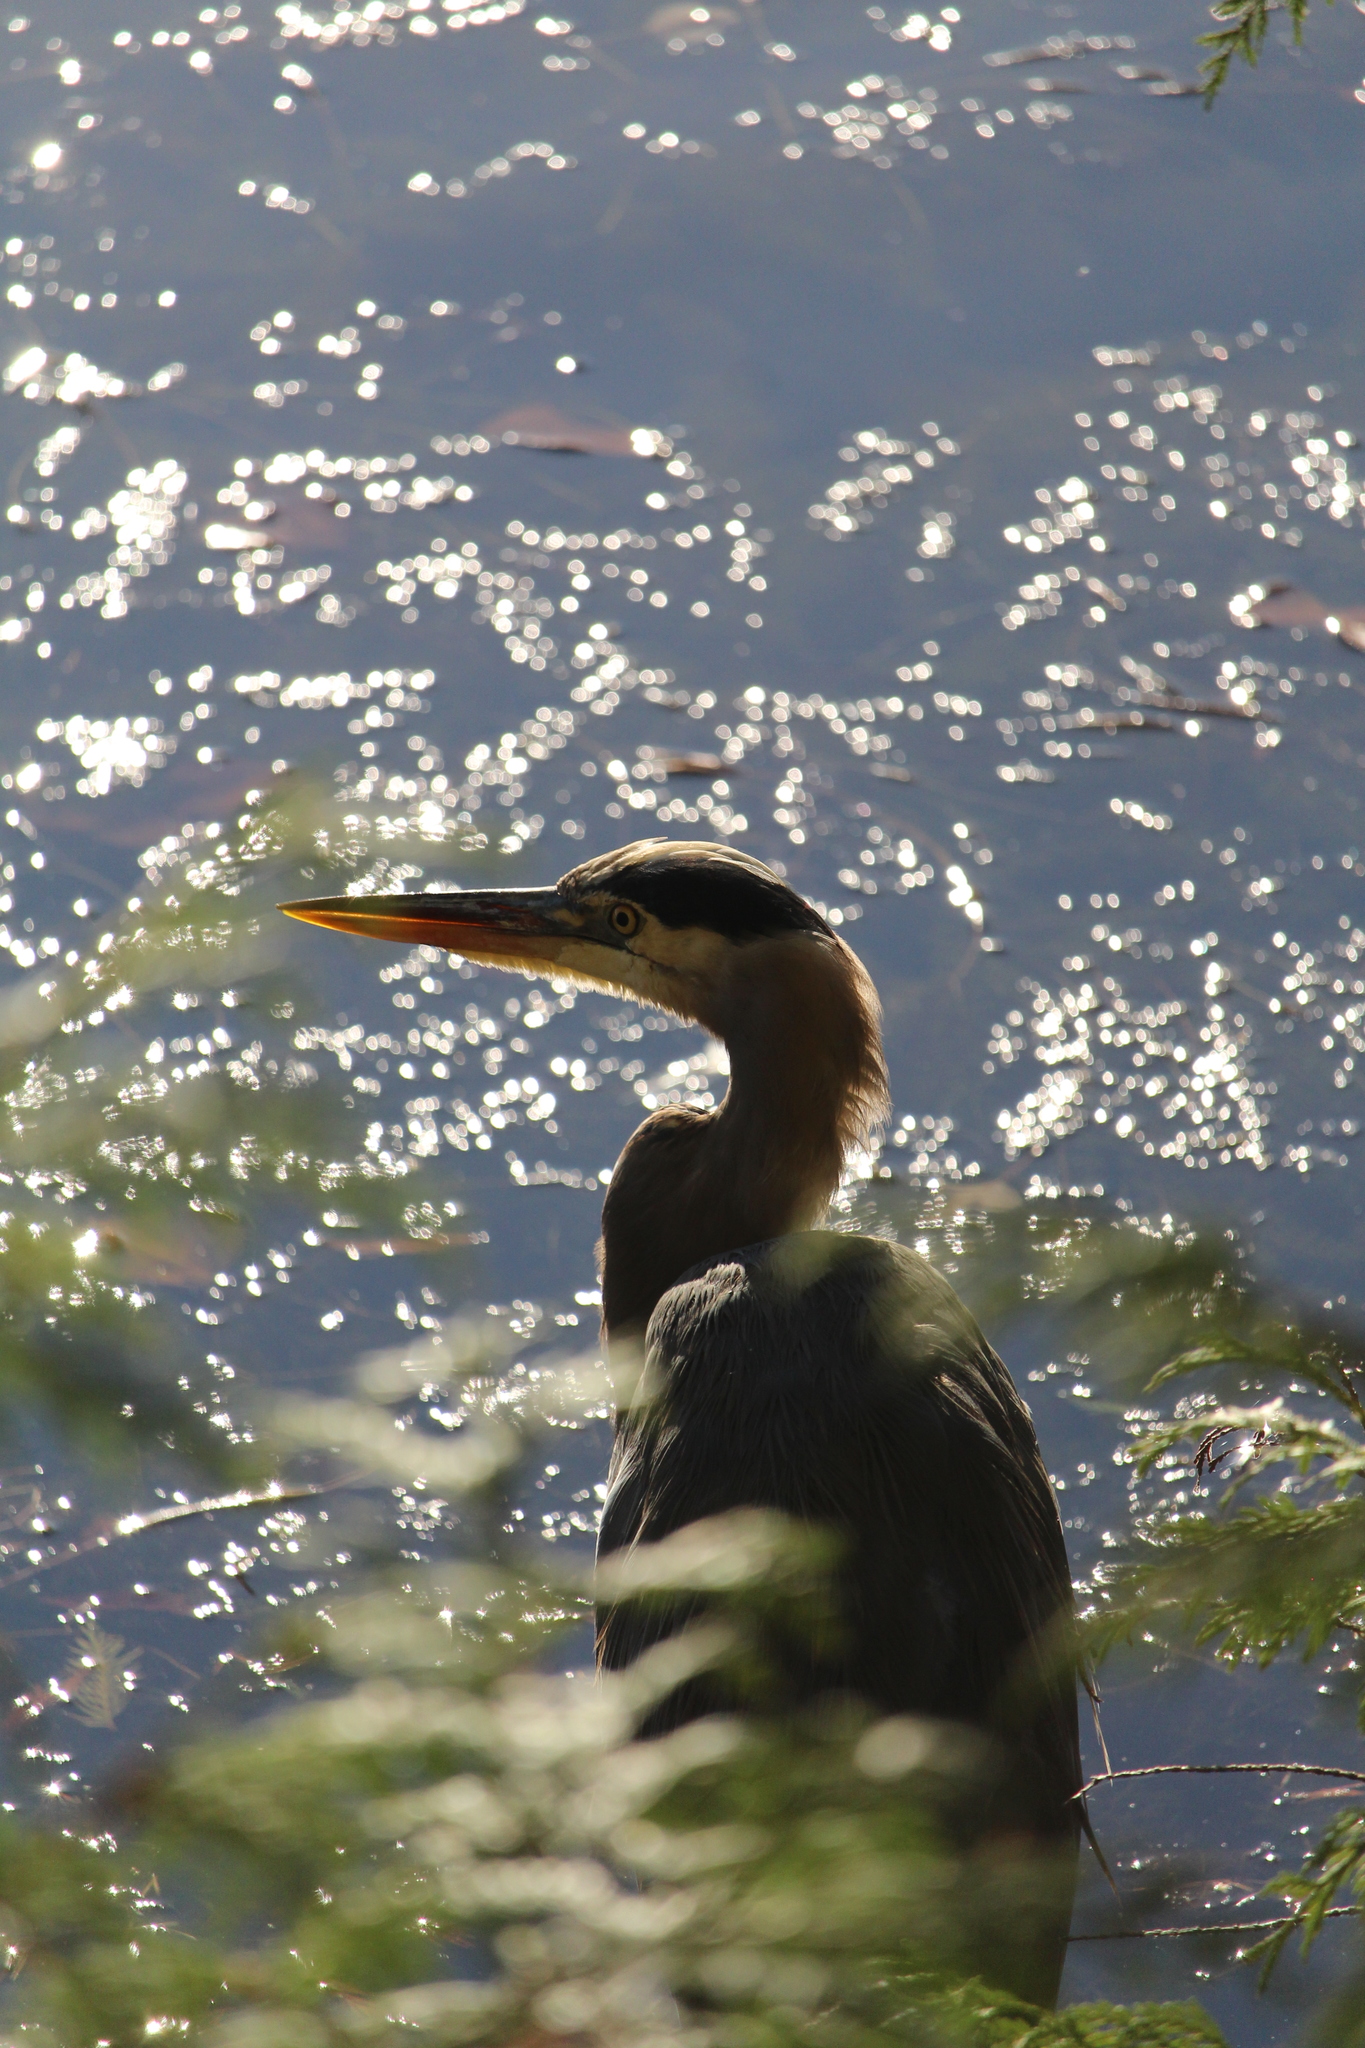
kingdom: Animalia
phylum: Chordata
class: Aves
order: Pelecaniformes
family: Ardeidae
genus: Ardea
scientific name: Ardea herodias
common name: Great blue heron
